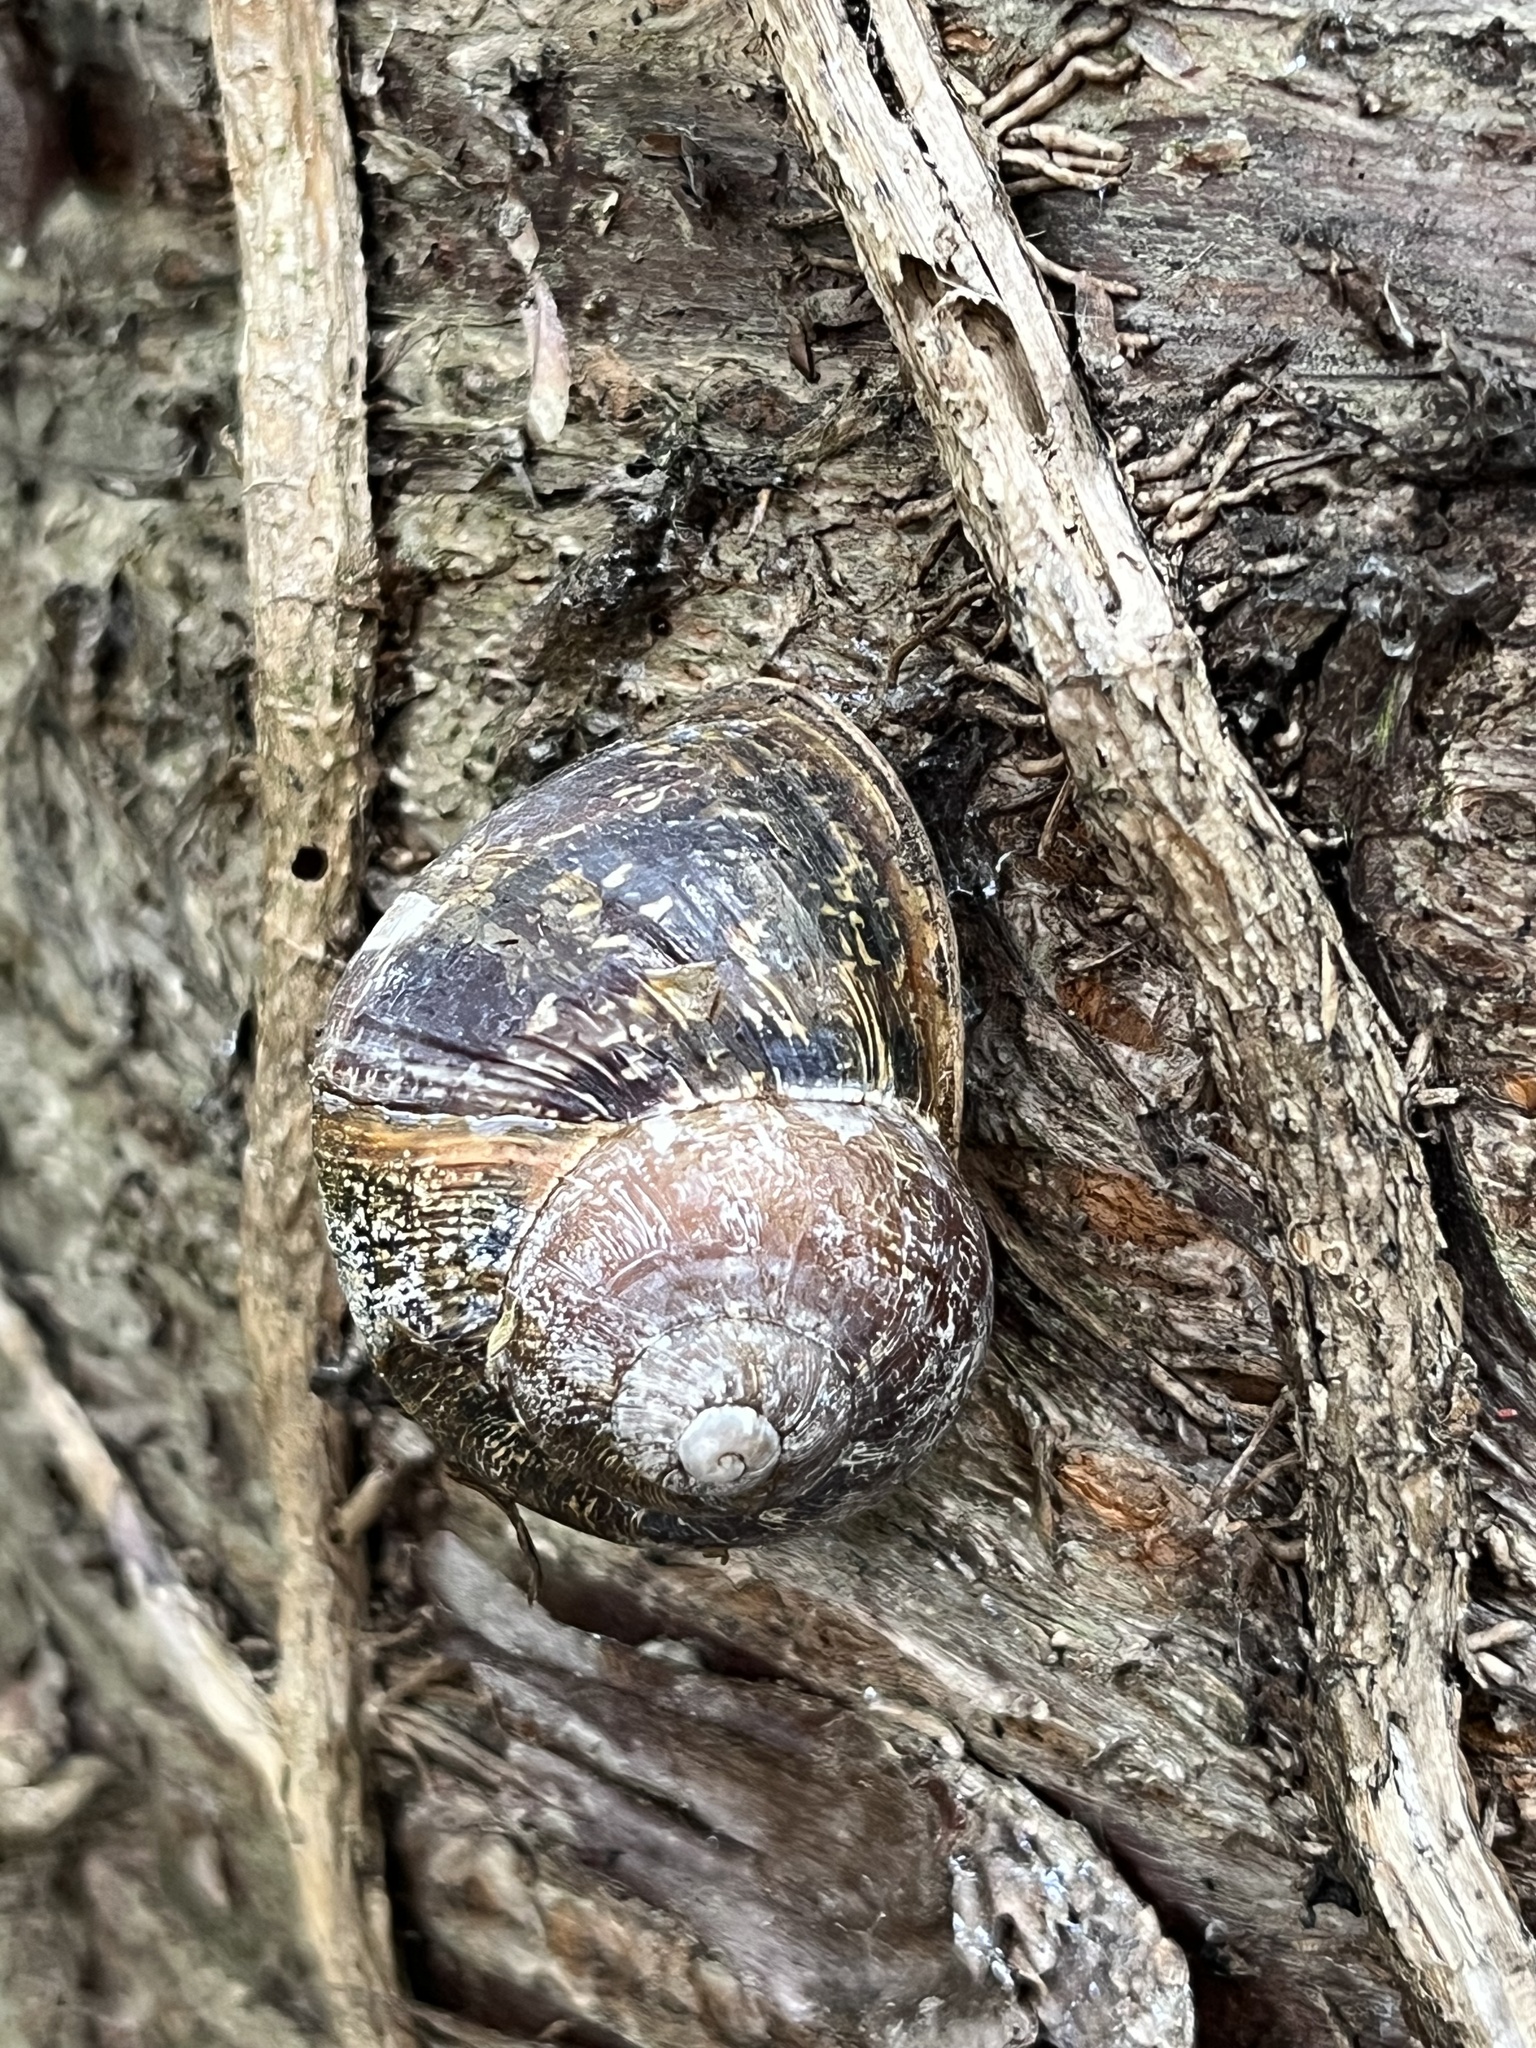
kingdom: Animalia
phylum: Mollusca
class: Gastropoda
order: Stylommatophora
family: Helicidae
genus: Cornu
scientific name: Cornu aspersum
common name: Brown garden snail
